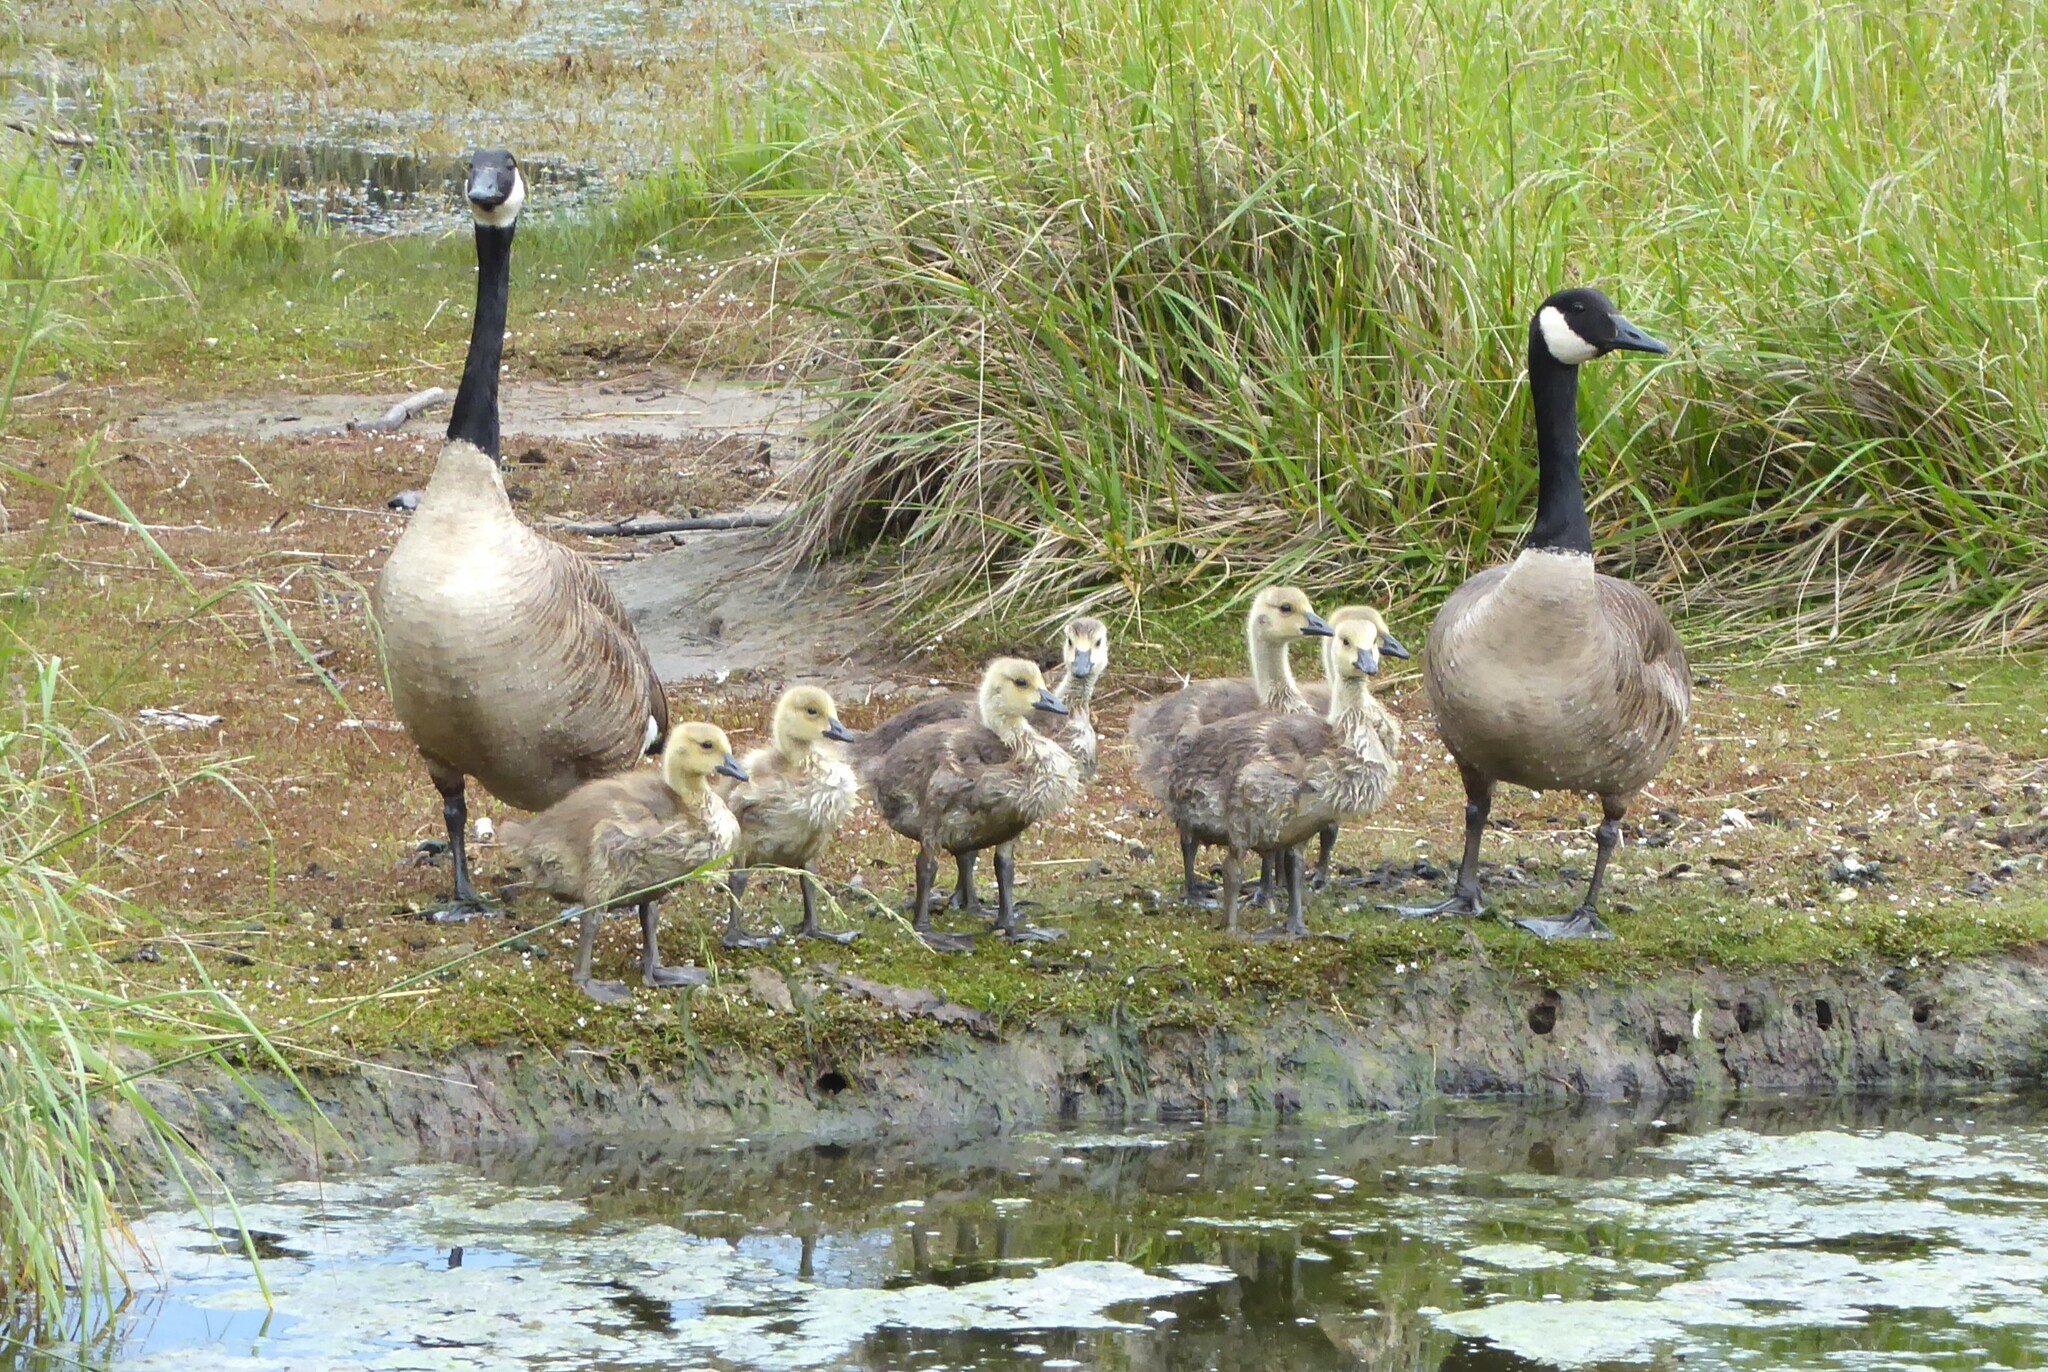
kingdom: Animalia
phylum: Chordata
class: Aves
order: Anseriformes
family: Anatidae
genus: Branta
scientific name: Branta canadensis
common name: Canada goose
